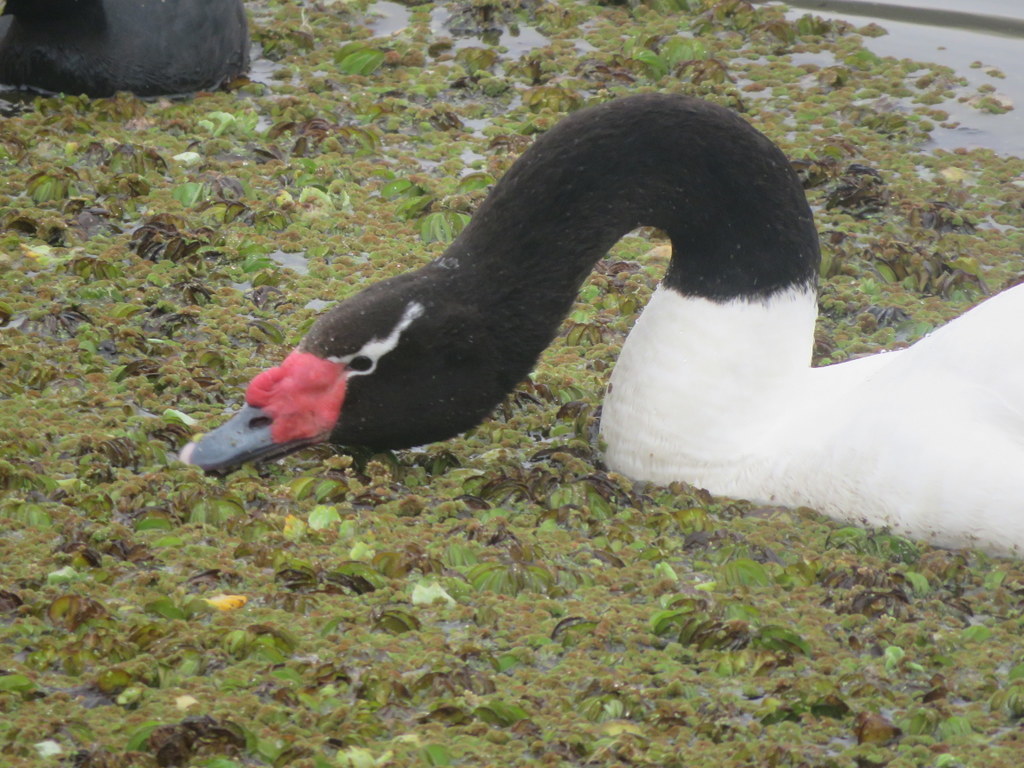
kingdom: Animalia
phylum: Chordata
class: Aves
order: Anseriformes
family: Anatidae
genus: Cygnus
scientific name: Cygnus melancoryphus
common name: Black-necked swan
